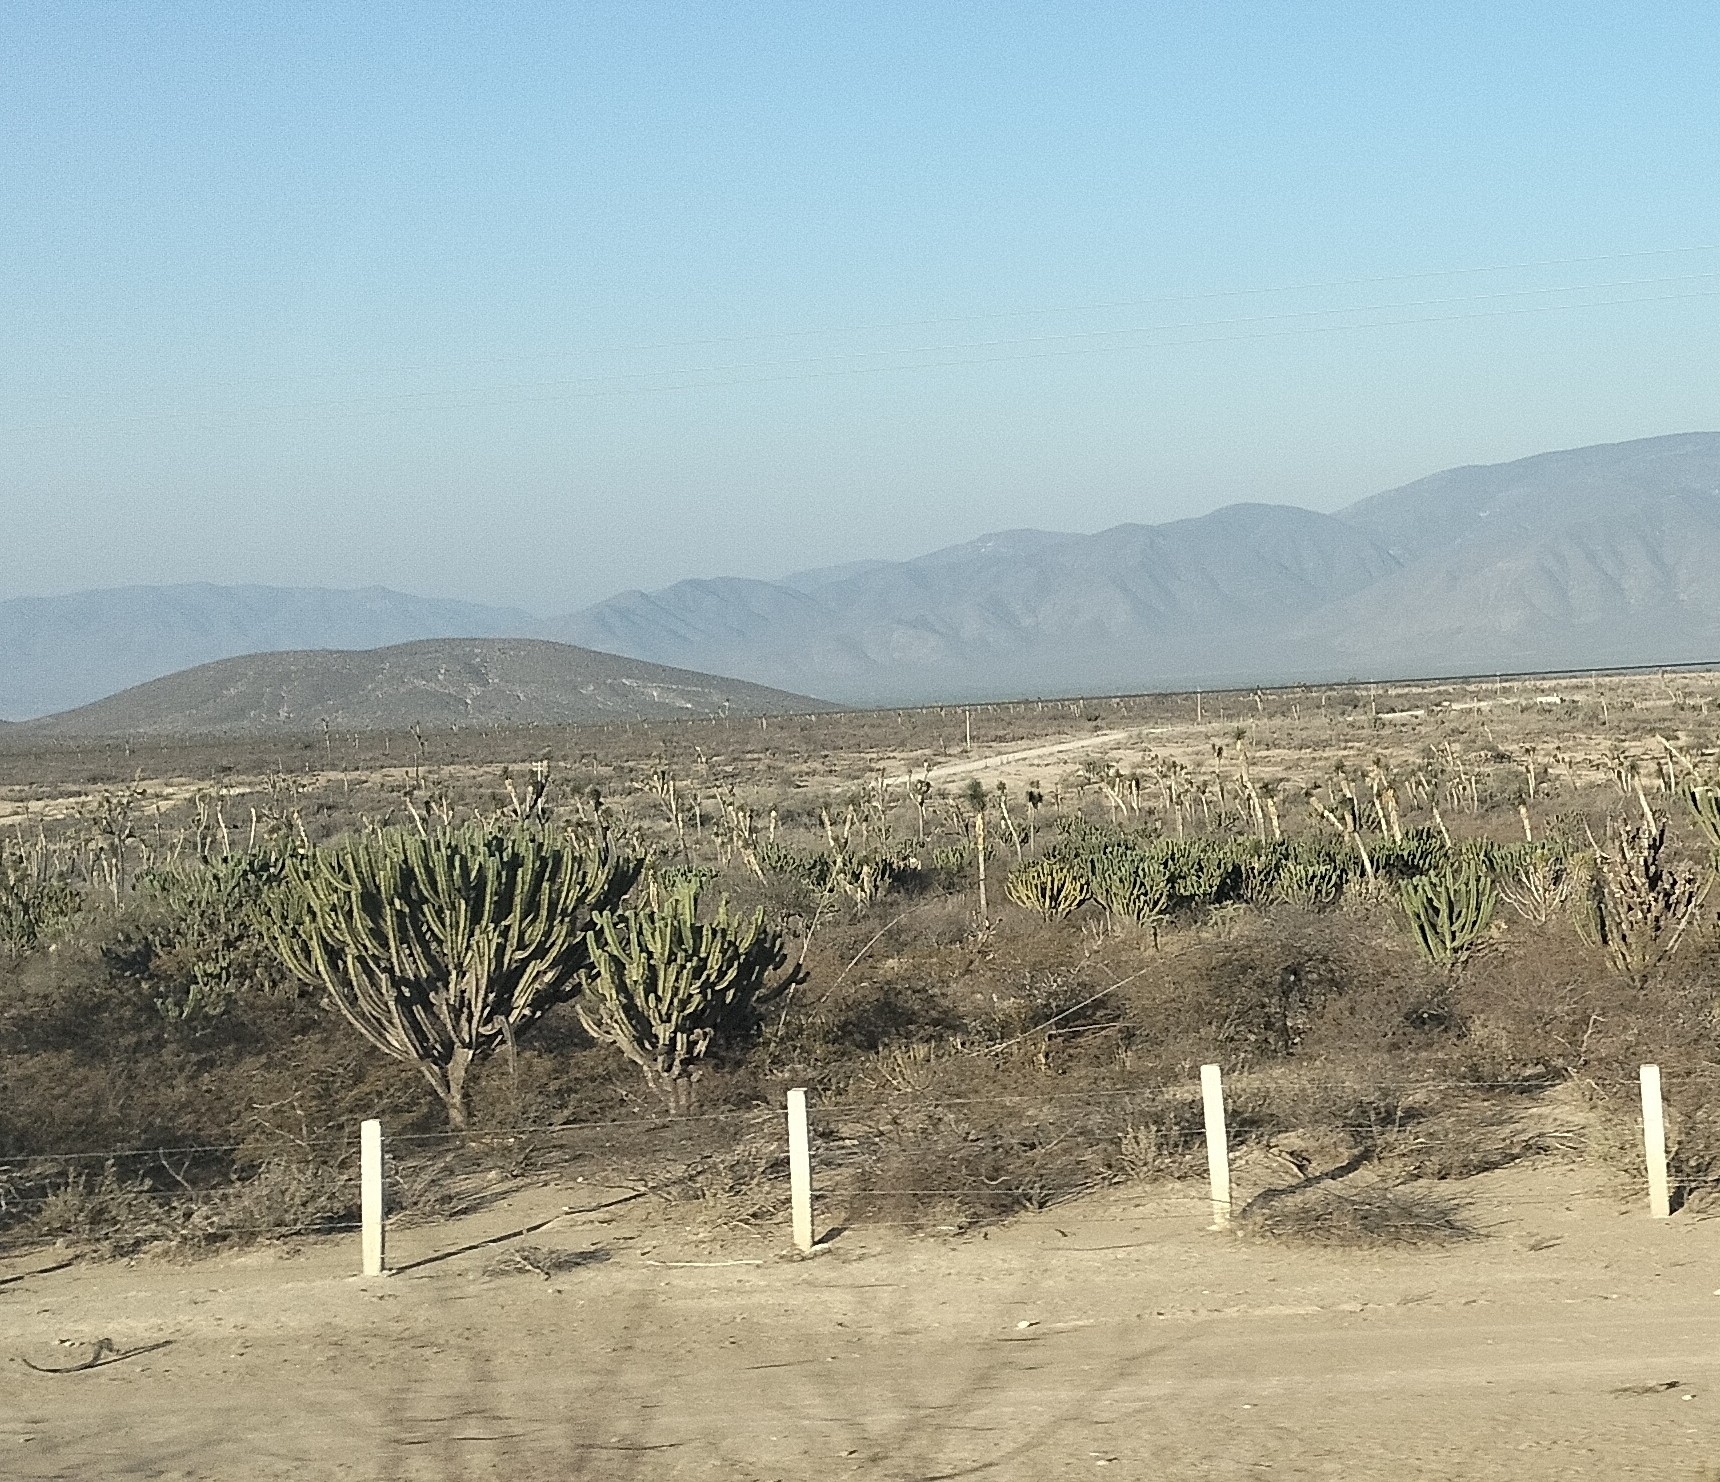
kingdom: Plantae
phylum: Tracheophyta
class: Magnoliopsida
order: Caryophyllales
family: Cactaceae
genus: Myrtillocactus
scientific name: Myrtillocactus geometrizans
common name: Bilberry cactus
